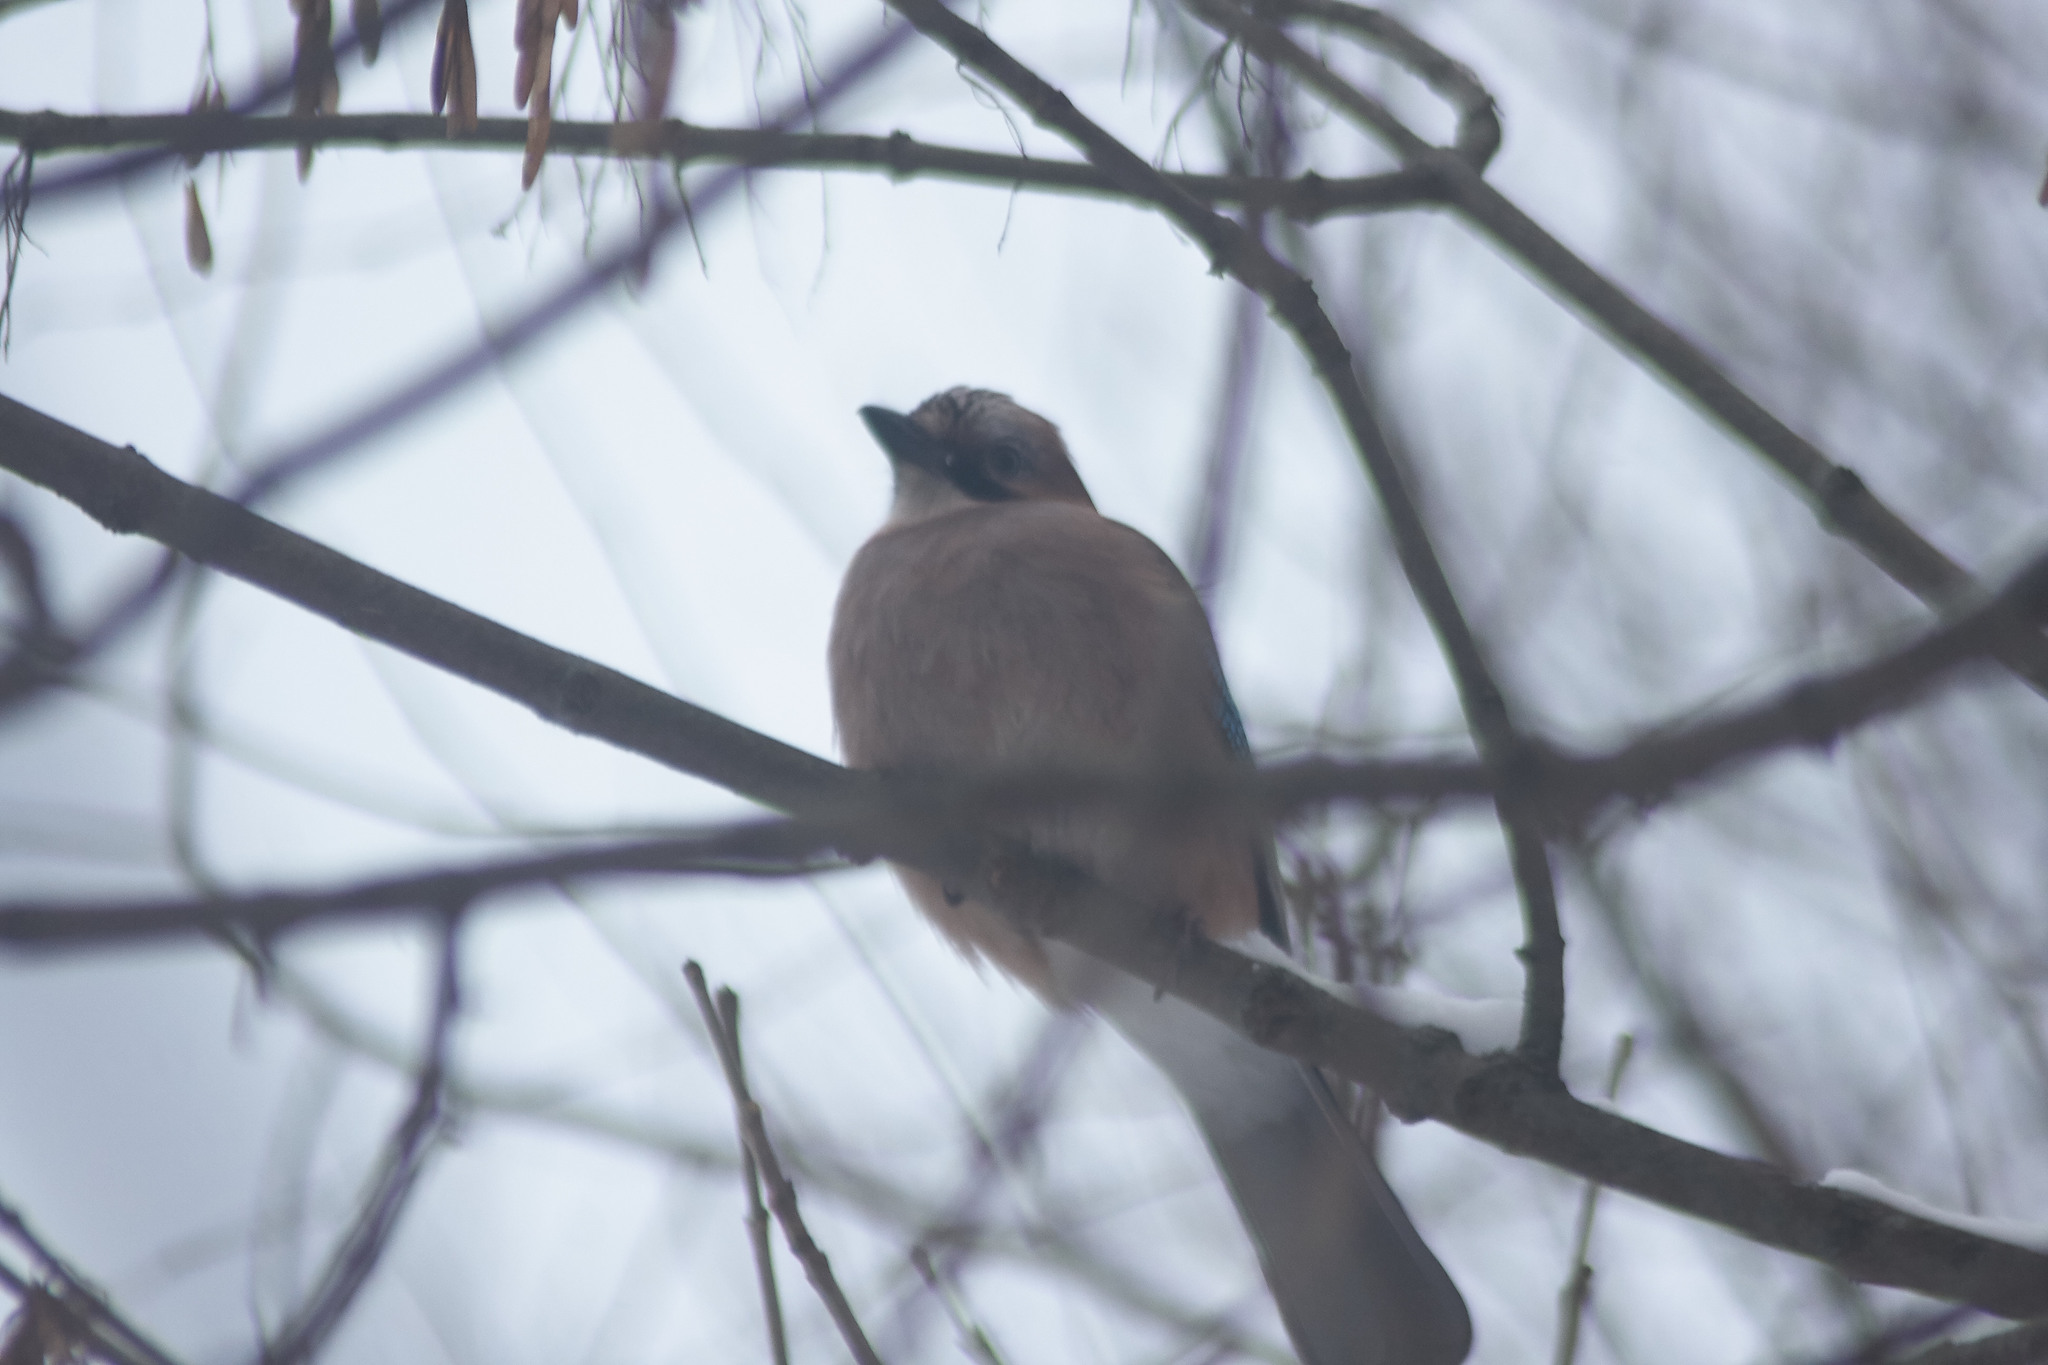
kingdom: Animalia
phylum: Chordata
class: Aves
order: Passeriformes
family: Corvidae
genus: Garrulus
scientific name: Garrulus glandarius
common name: Eurasian jay
